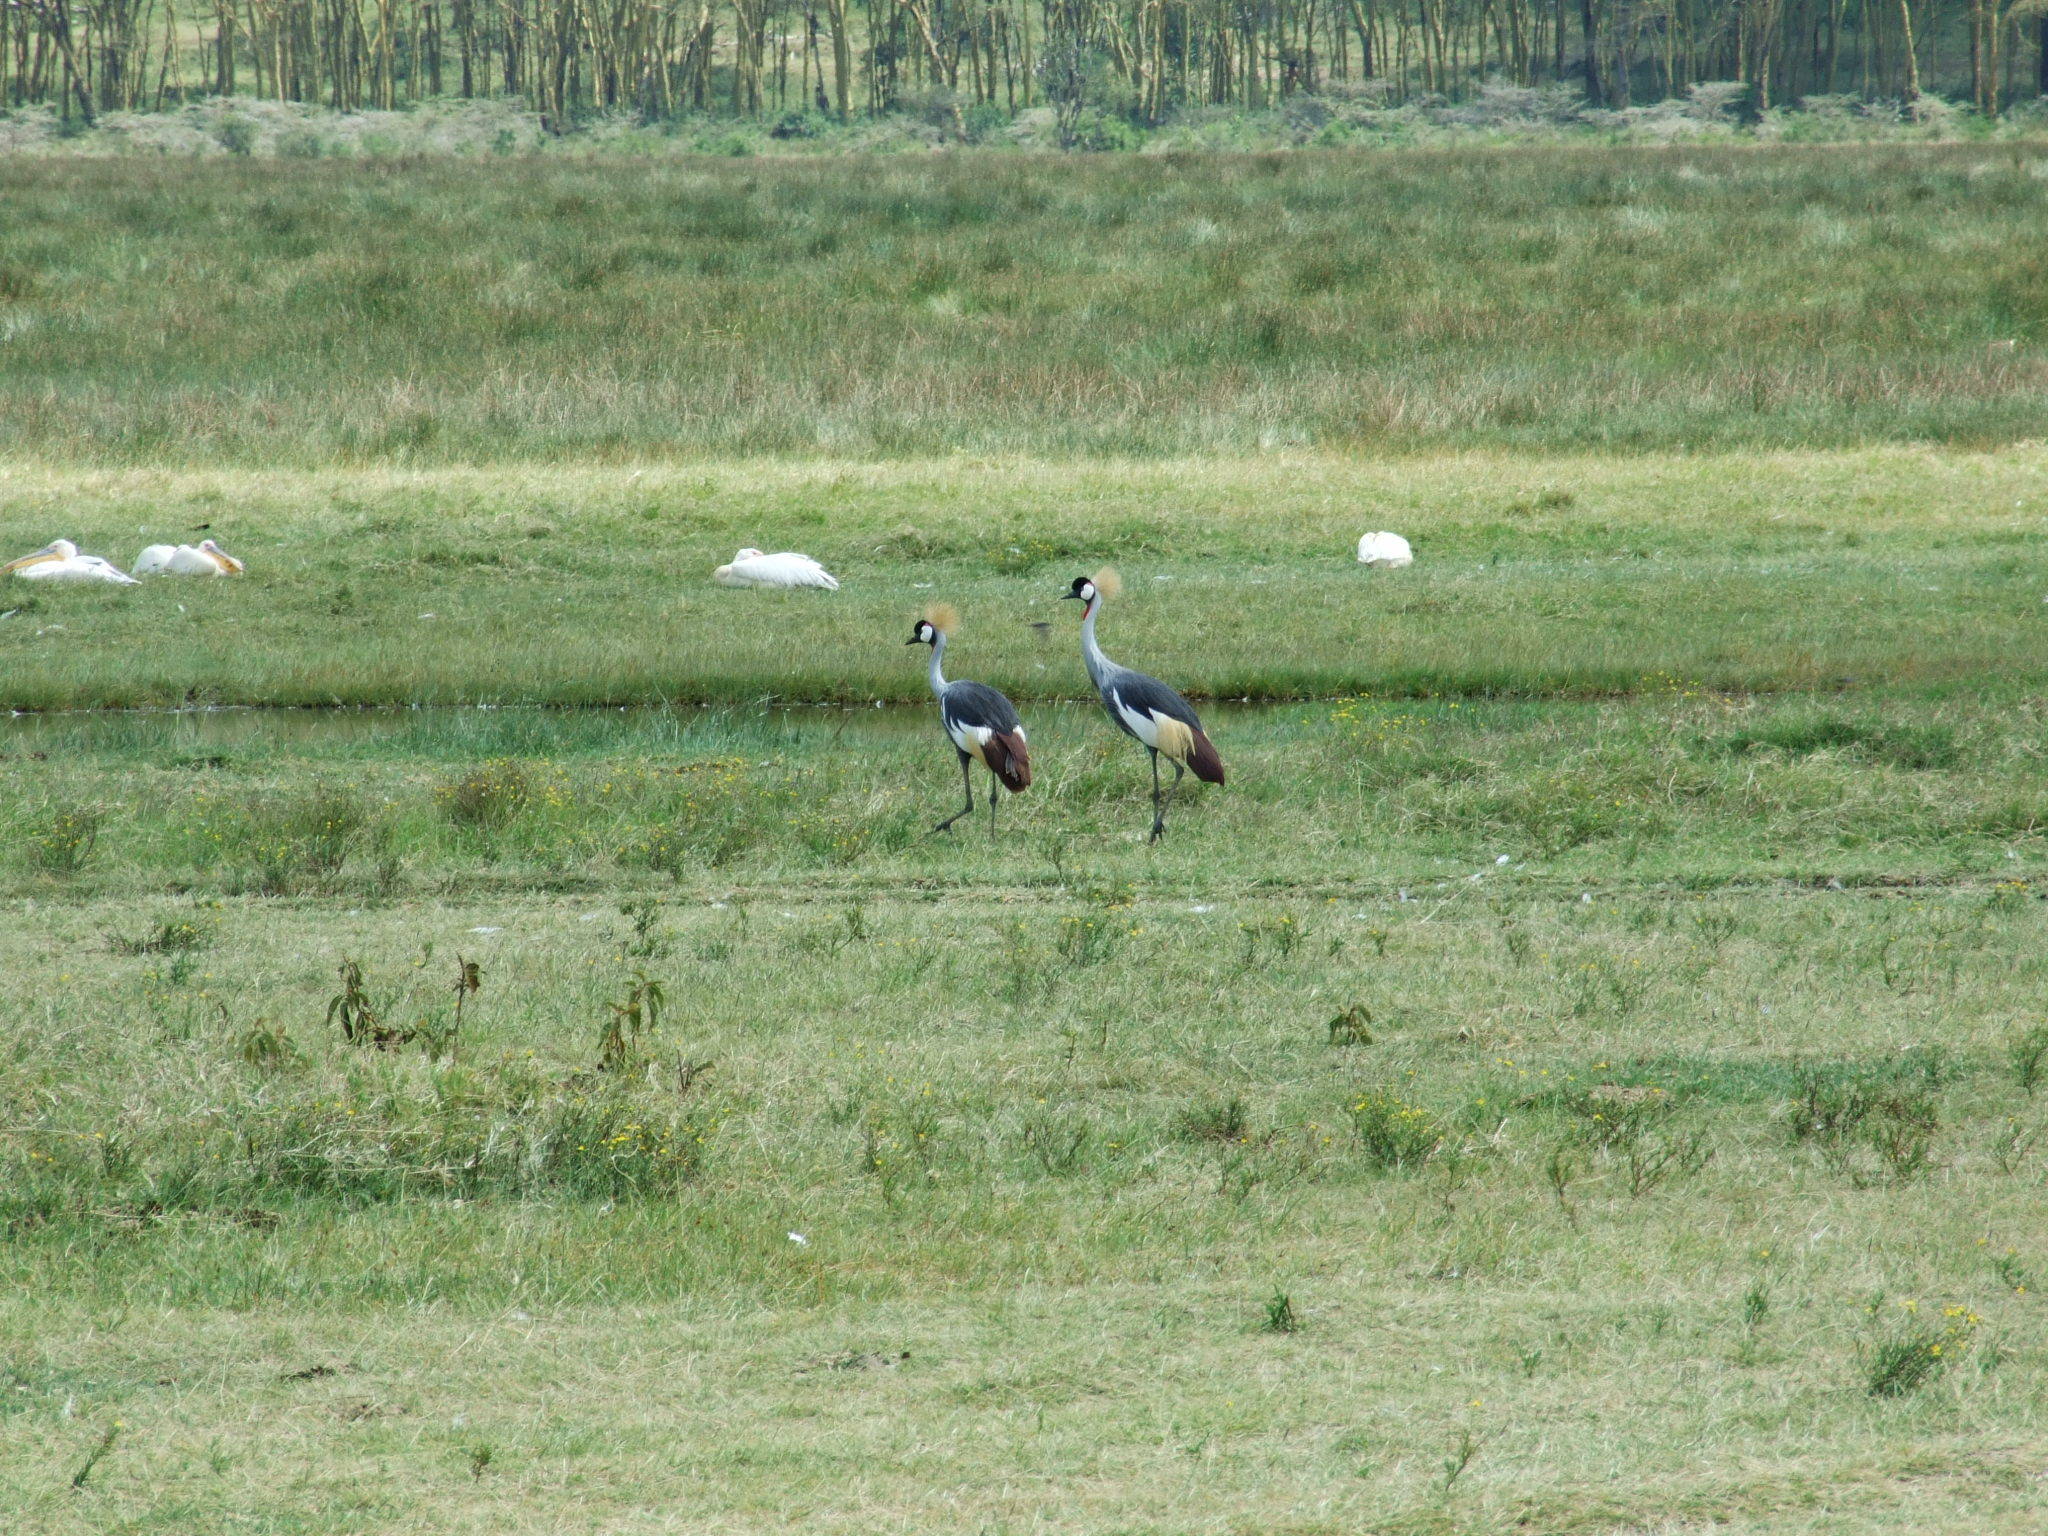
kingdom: Animalia
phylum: Chordata
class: Aves
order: Gruiformes
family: Gruidae
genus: Balearica
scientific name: Balearica regulorum
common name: Grey crowned crane
